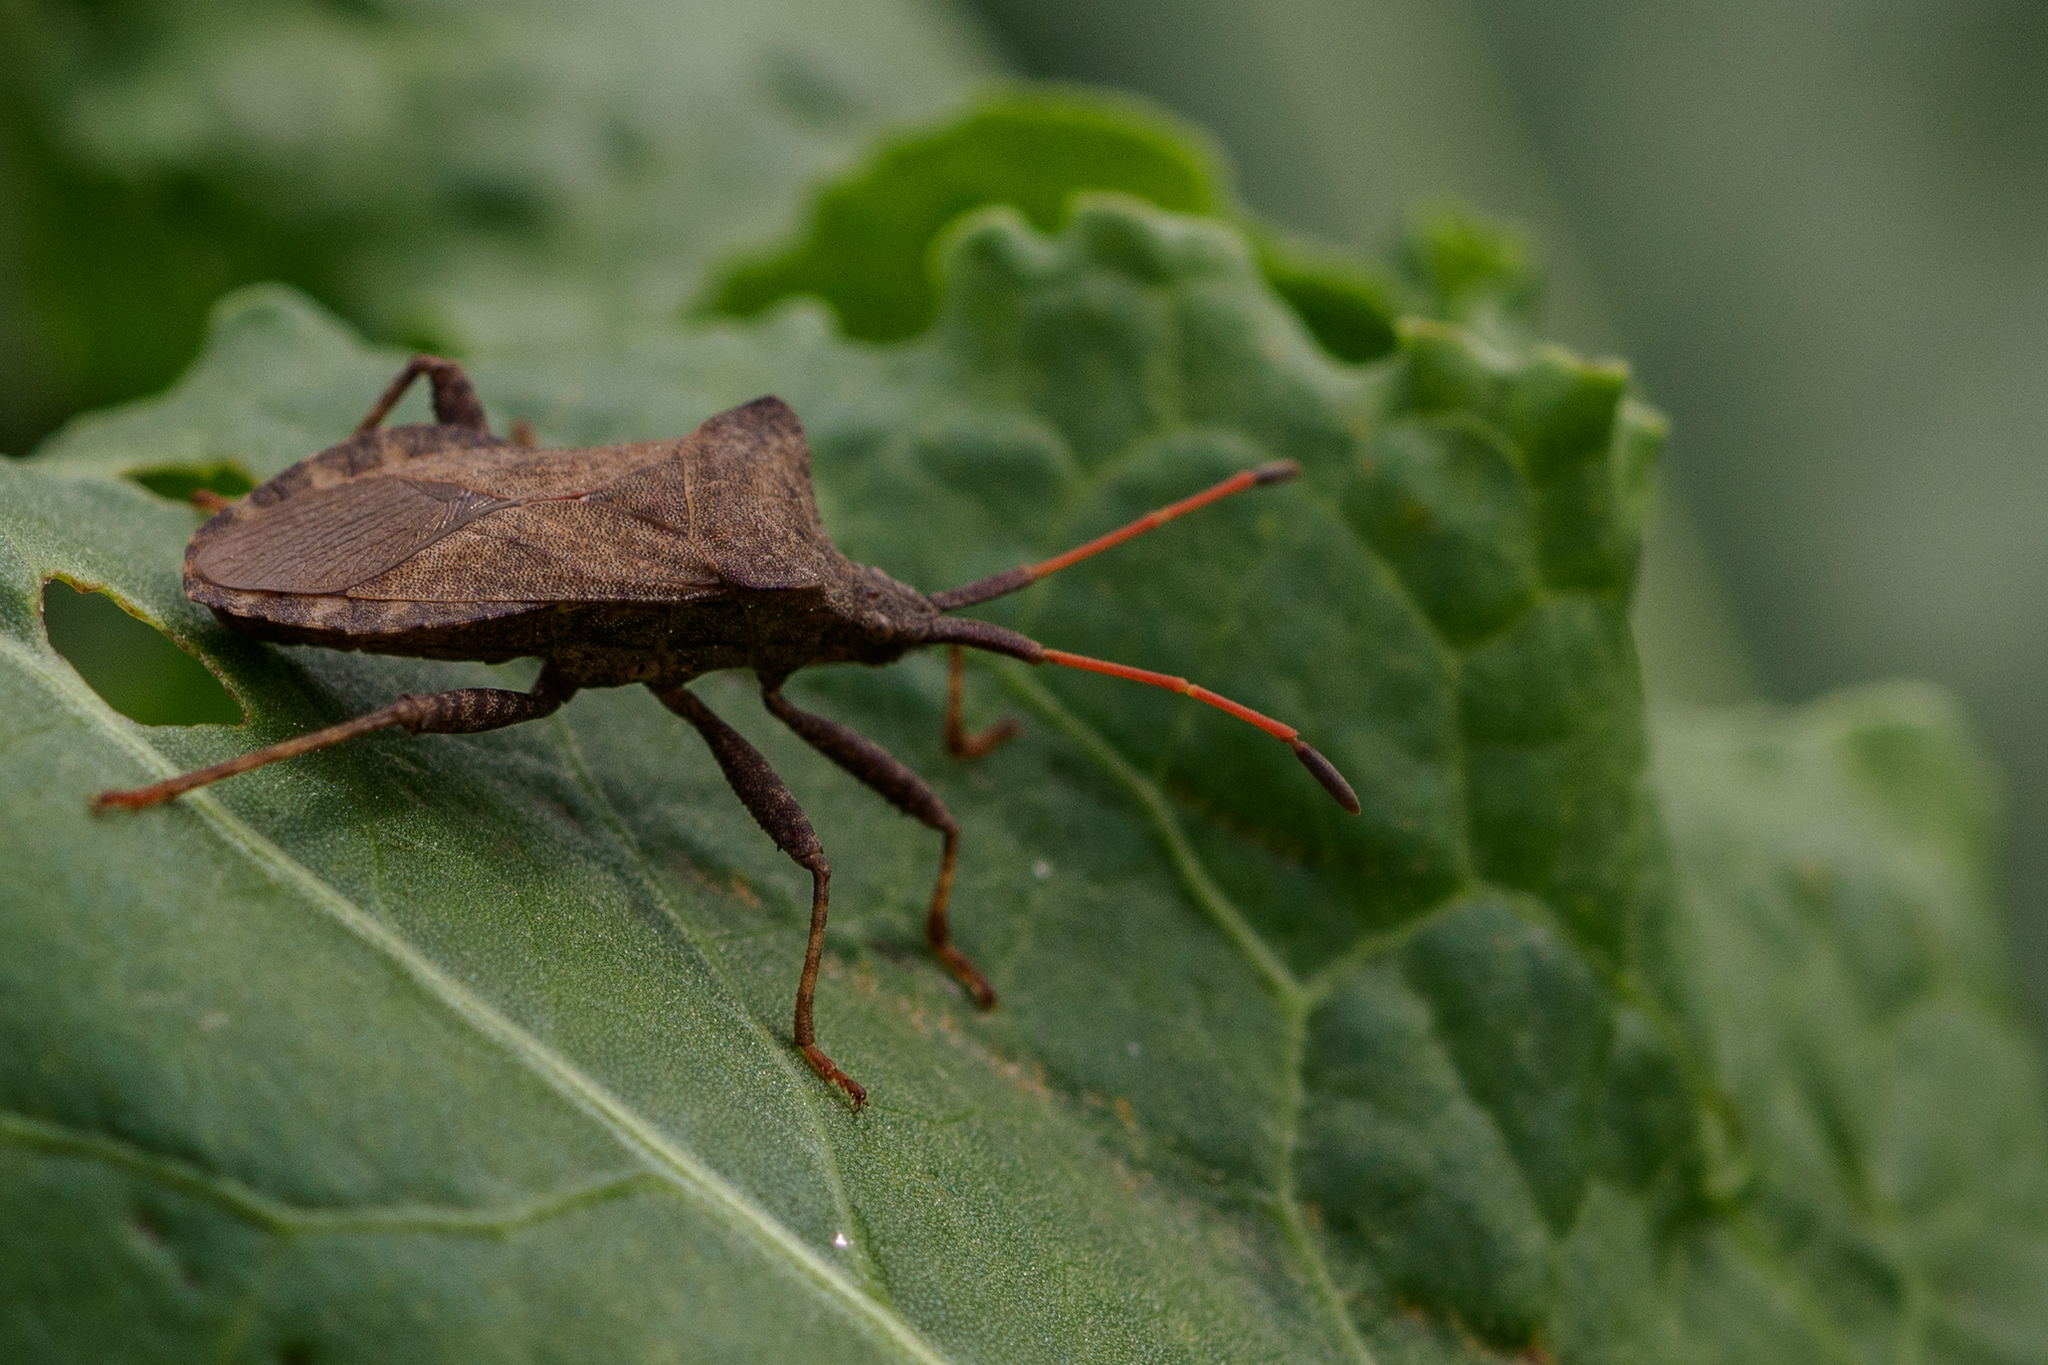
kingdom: Animalia
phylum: Arthropoda
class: Insecta
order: Hemiptera
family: Coreidae
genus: Coreus
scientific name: Coreus marginatus
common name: Dock bug
